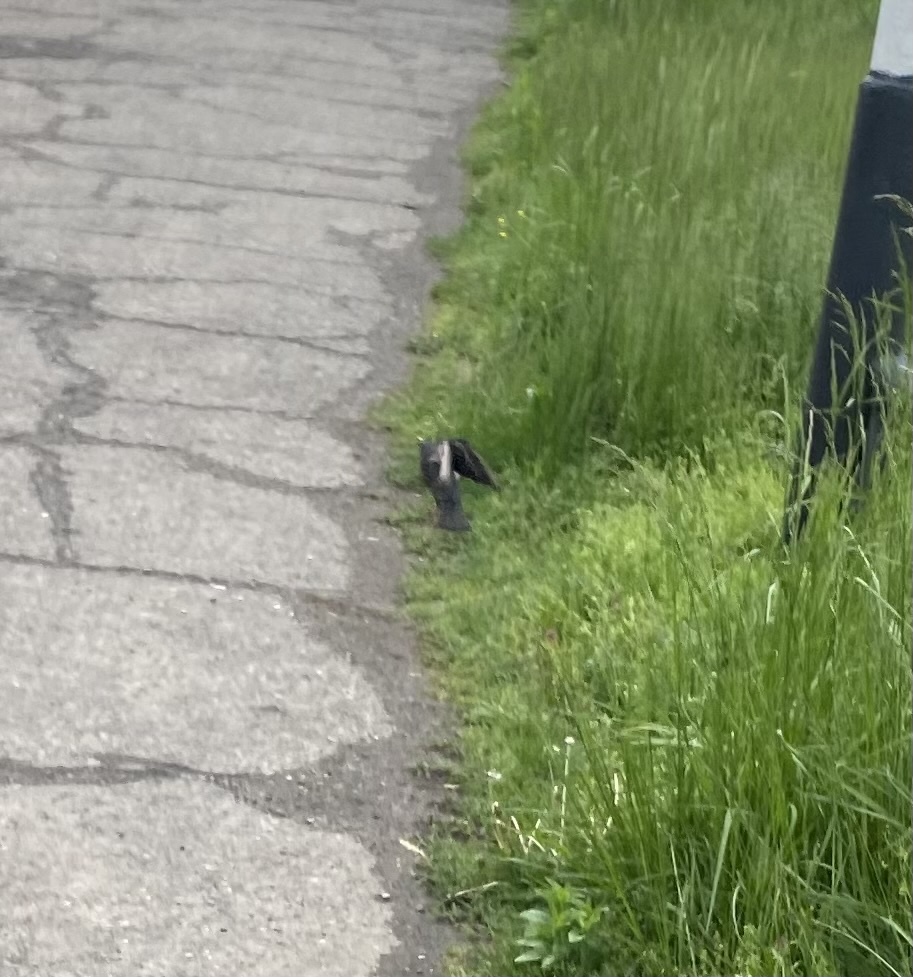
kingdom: Animalia
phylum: Chordata
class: Aves
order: Passeriformes
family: Sturnidae
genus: Sturnus
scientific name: Sturnus vulgaris
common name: Common starling
